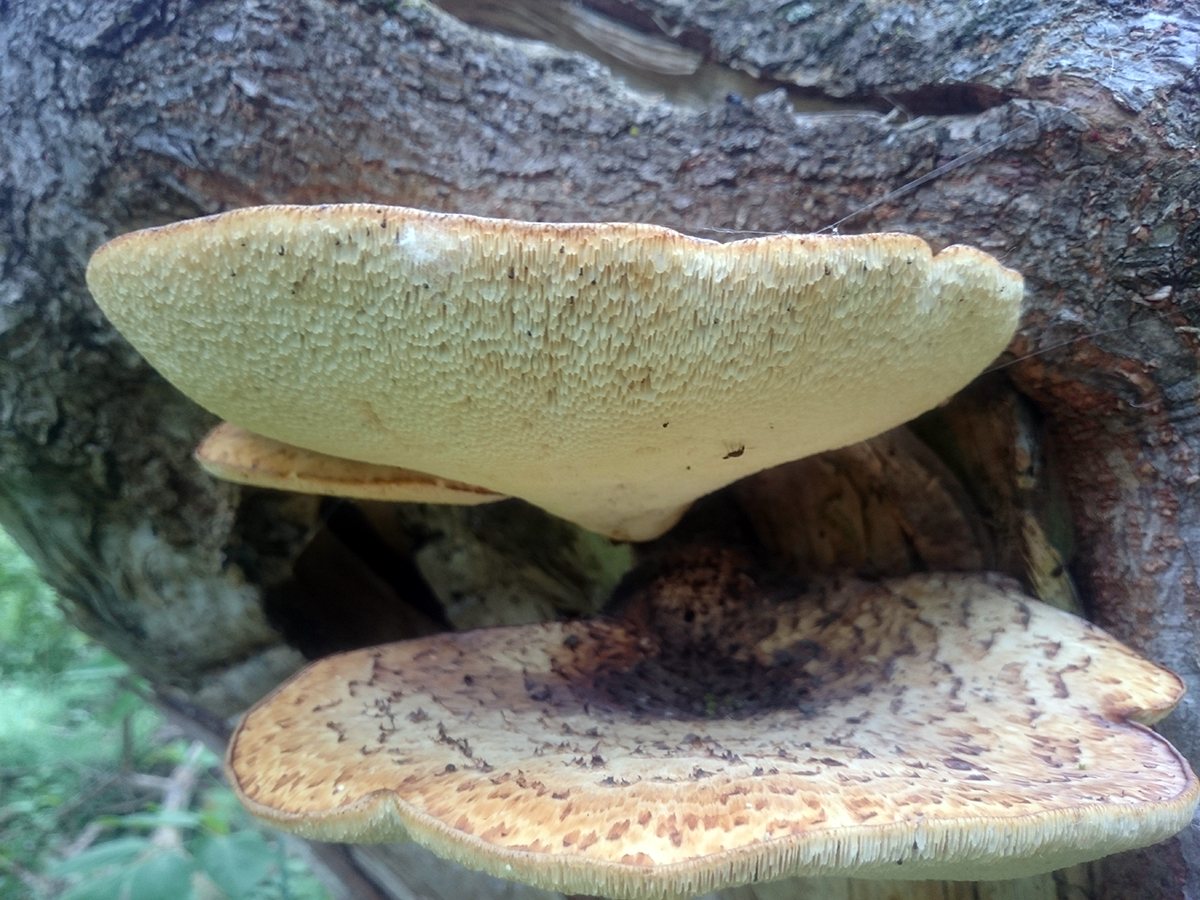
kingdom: Fungi
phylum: Basidiomycota
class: Agaricomycetes
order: Polyporales
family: Polyporaceae
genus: Cerioporus
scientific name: Cerioporus squamosus
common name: Dryad's saddle
